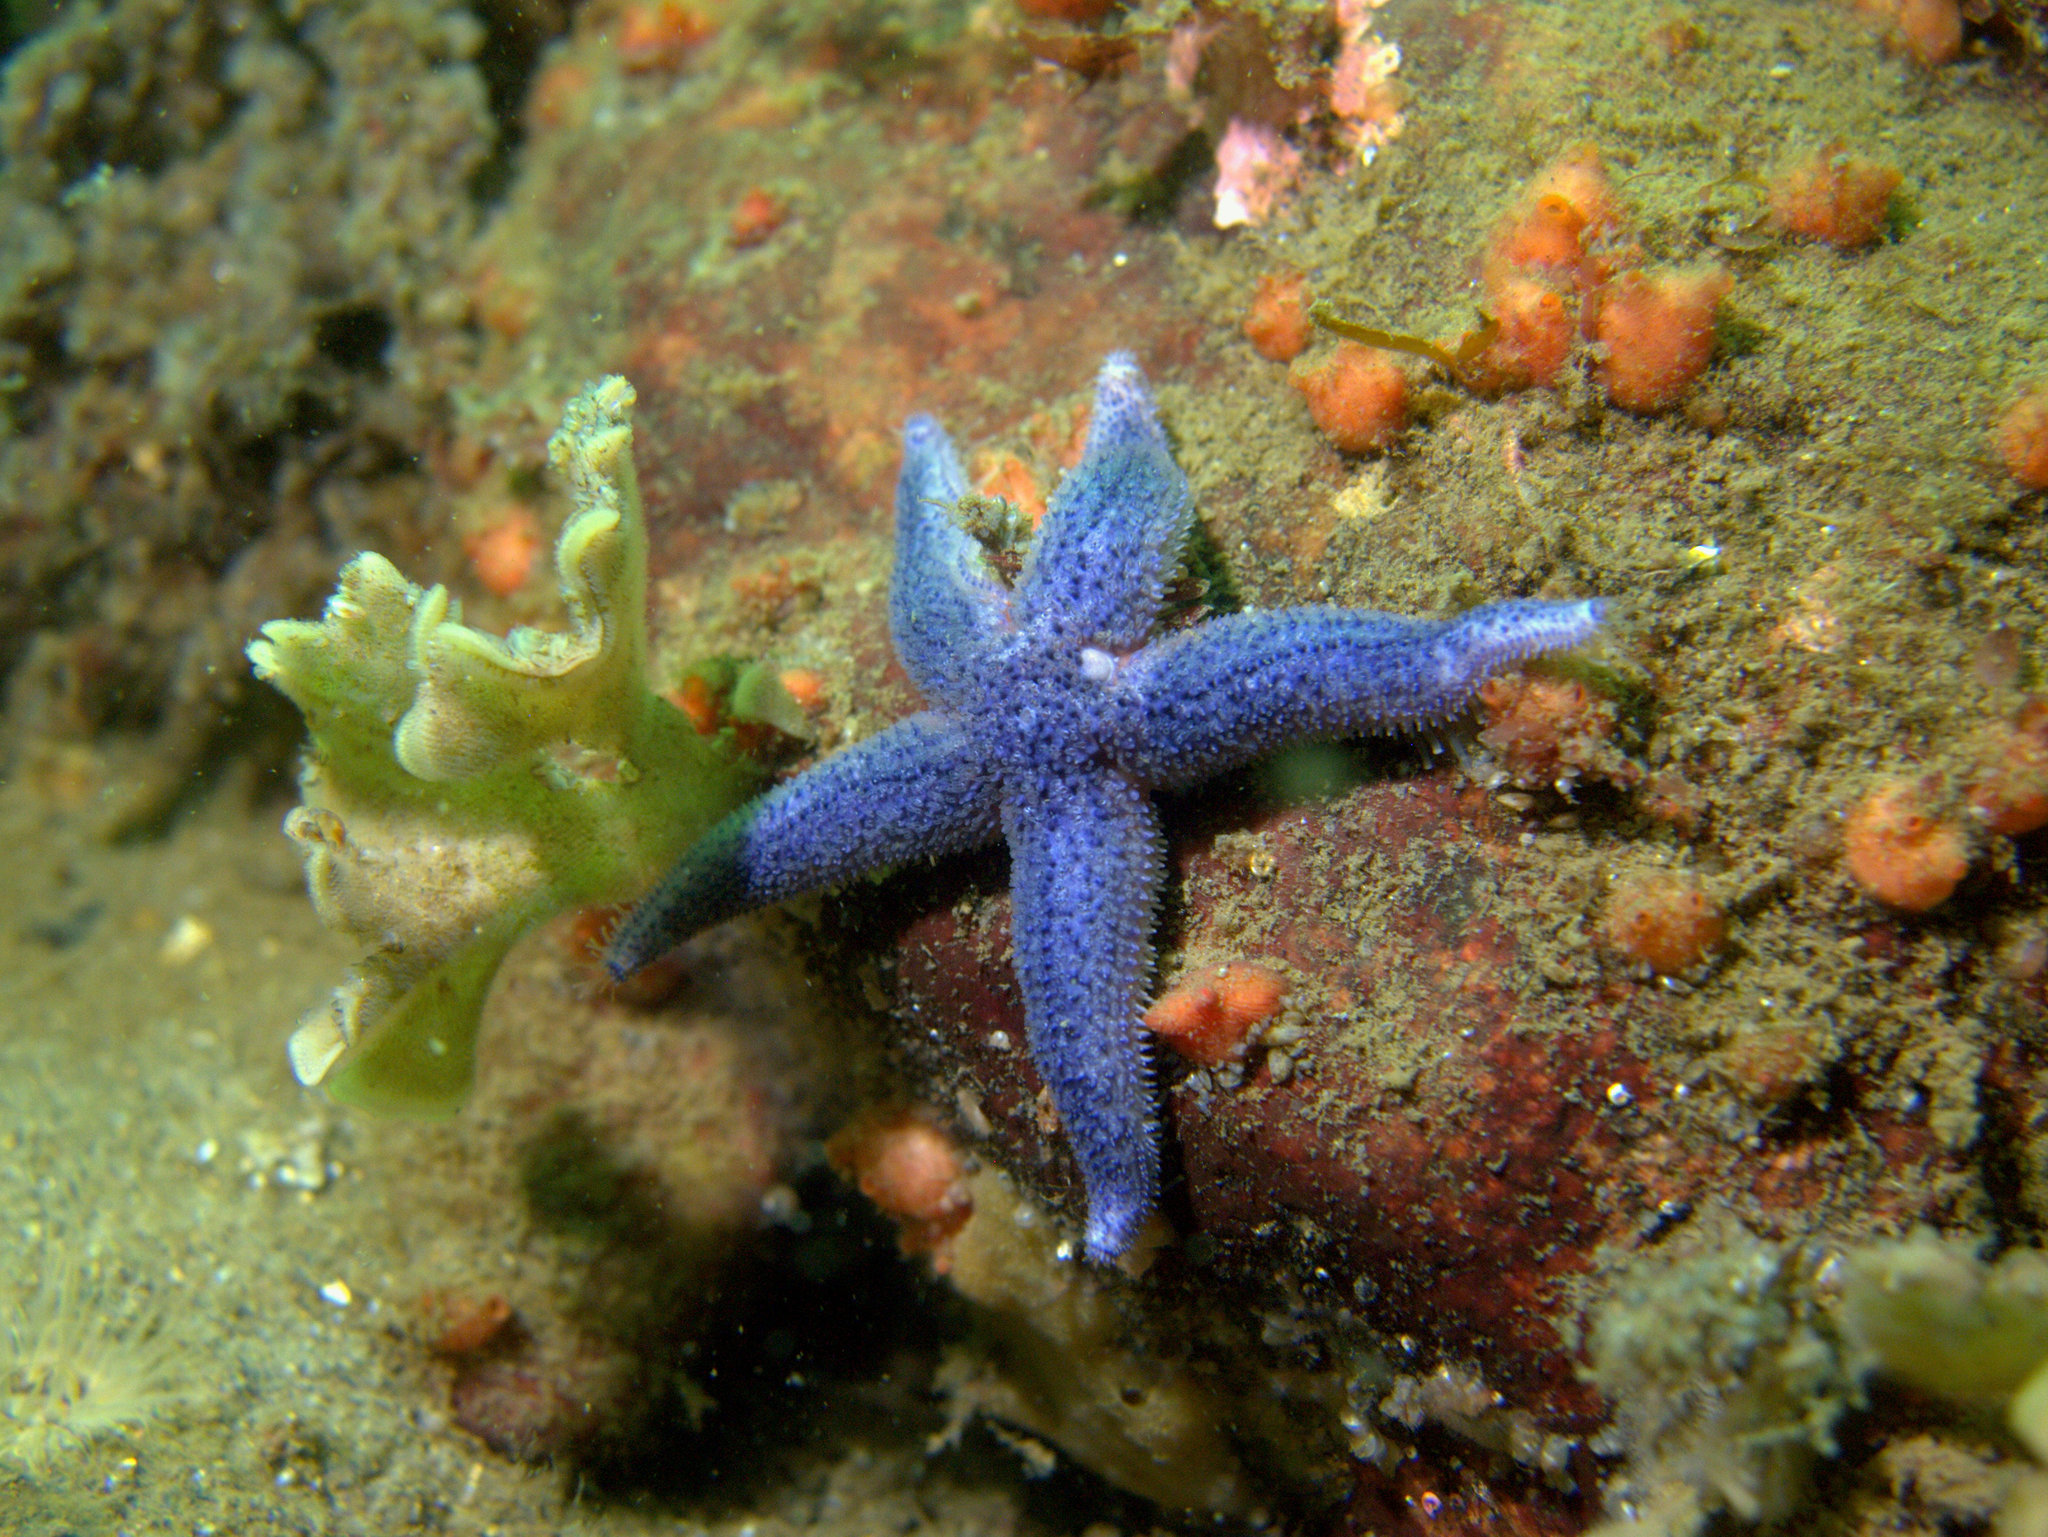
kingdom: Animalia
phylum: Echinodermata
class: Asteroidea
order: Forcipulatida
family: Asteriidae
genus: Asterias
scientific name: Asterias rubens
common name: Common starfish
